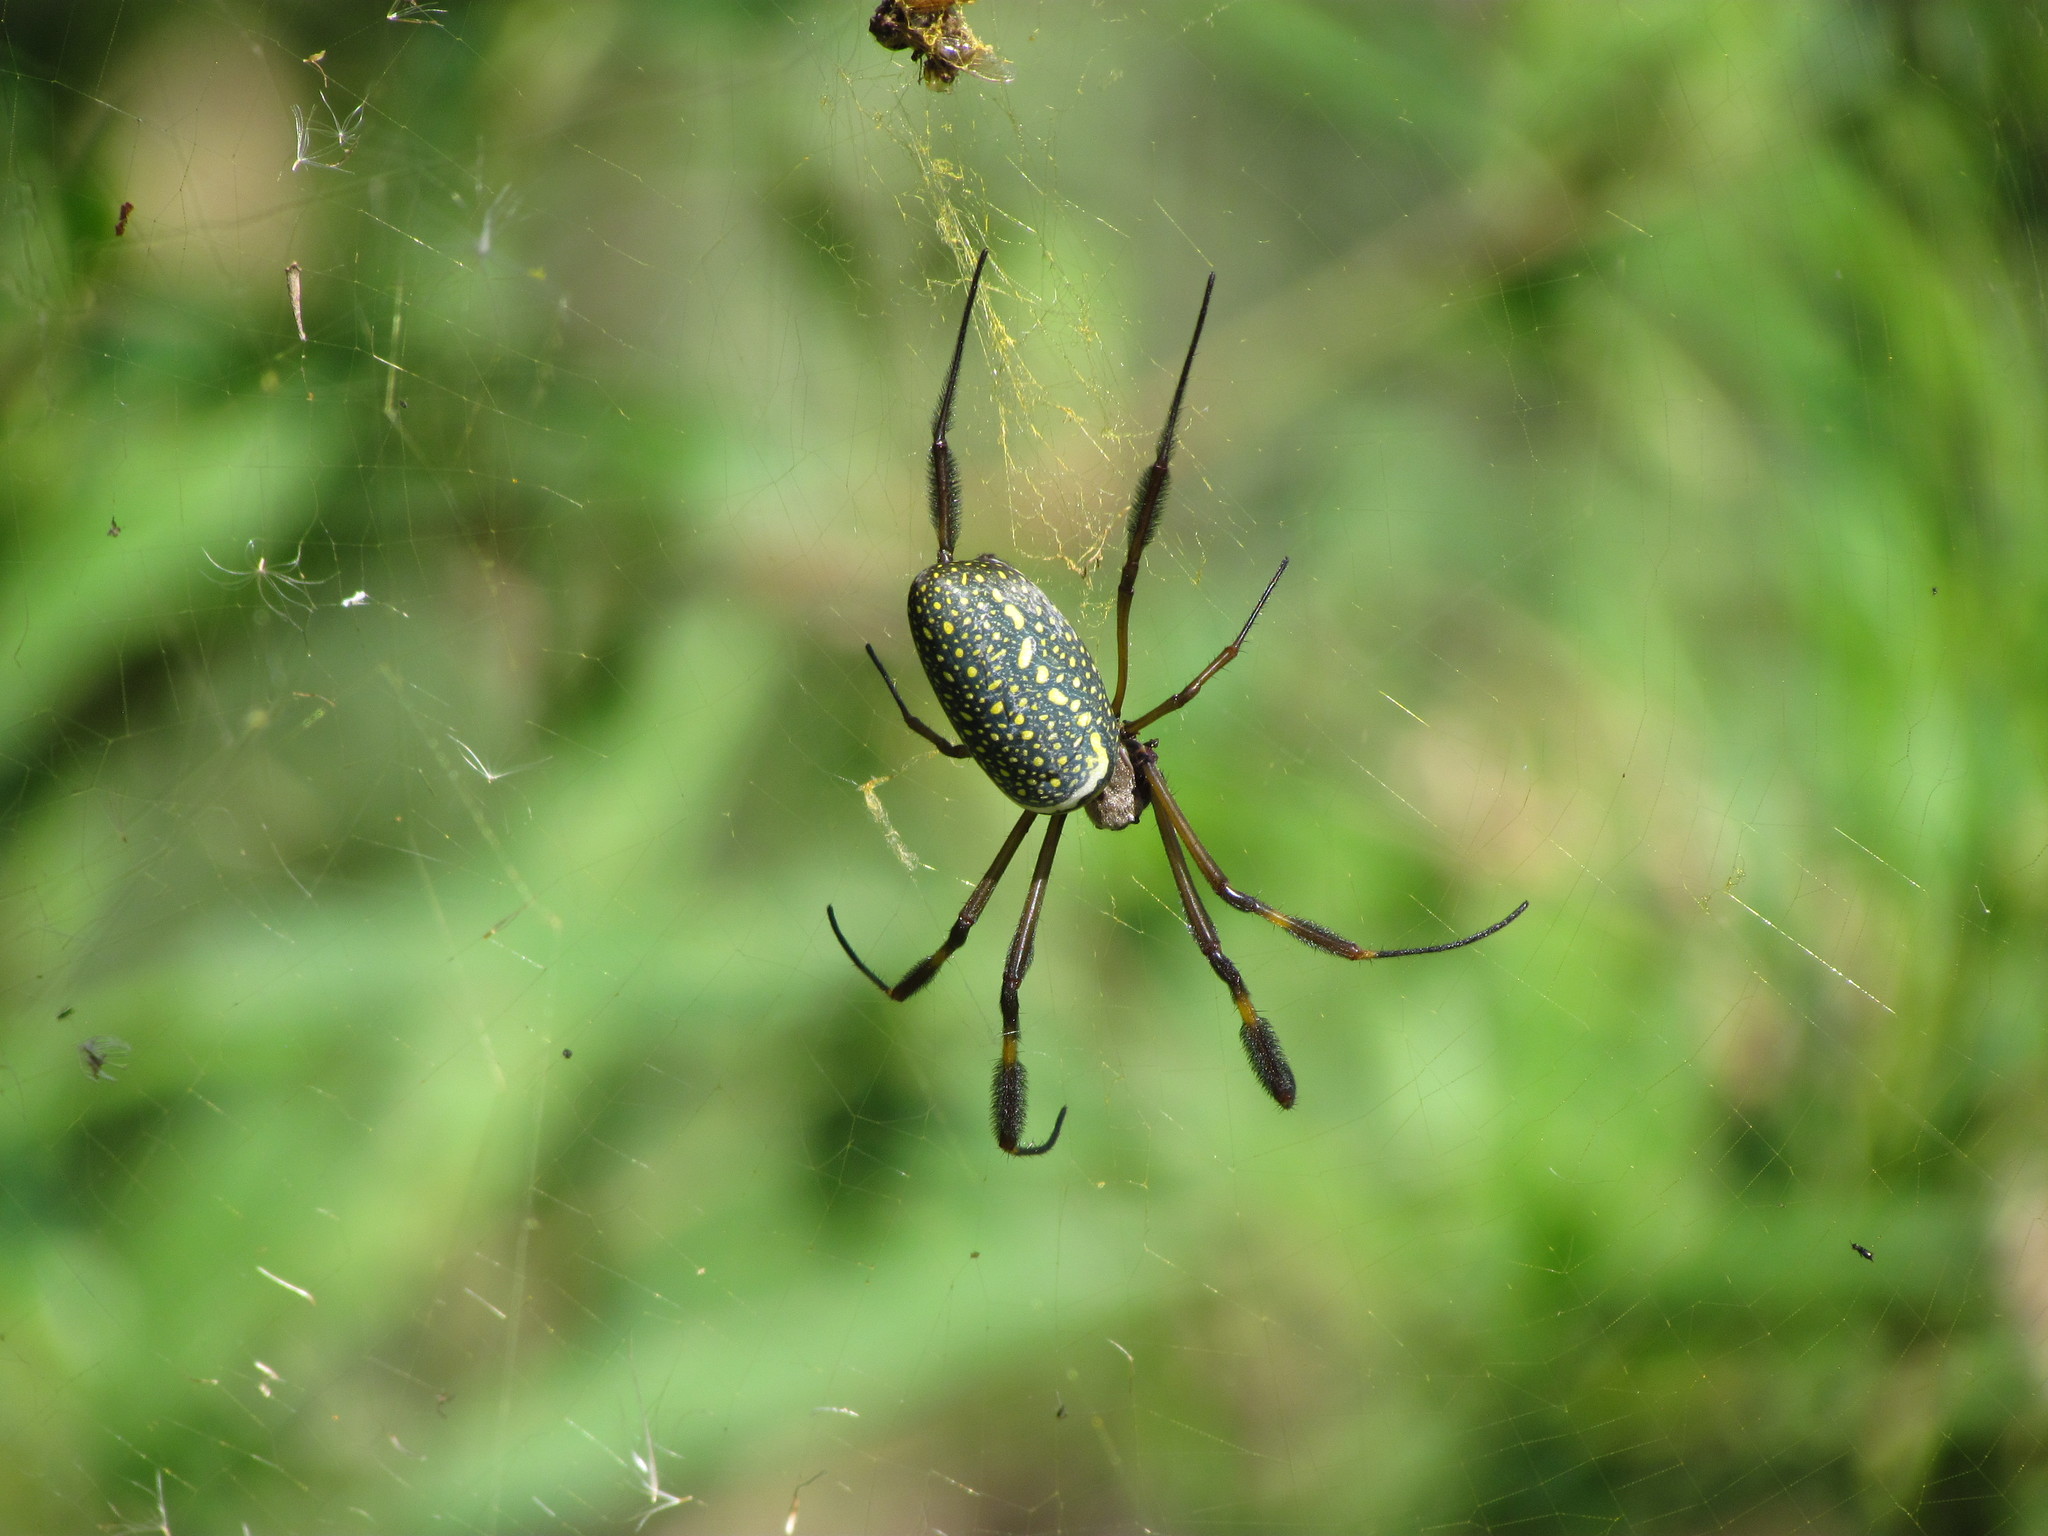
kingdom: Animalia
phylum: Arthropoda
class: Arachnida
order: Araneae
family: Araneidae
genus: Trichonephila
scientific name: Trichonephila clavipes
